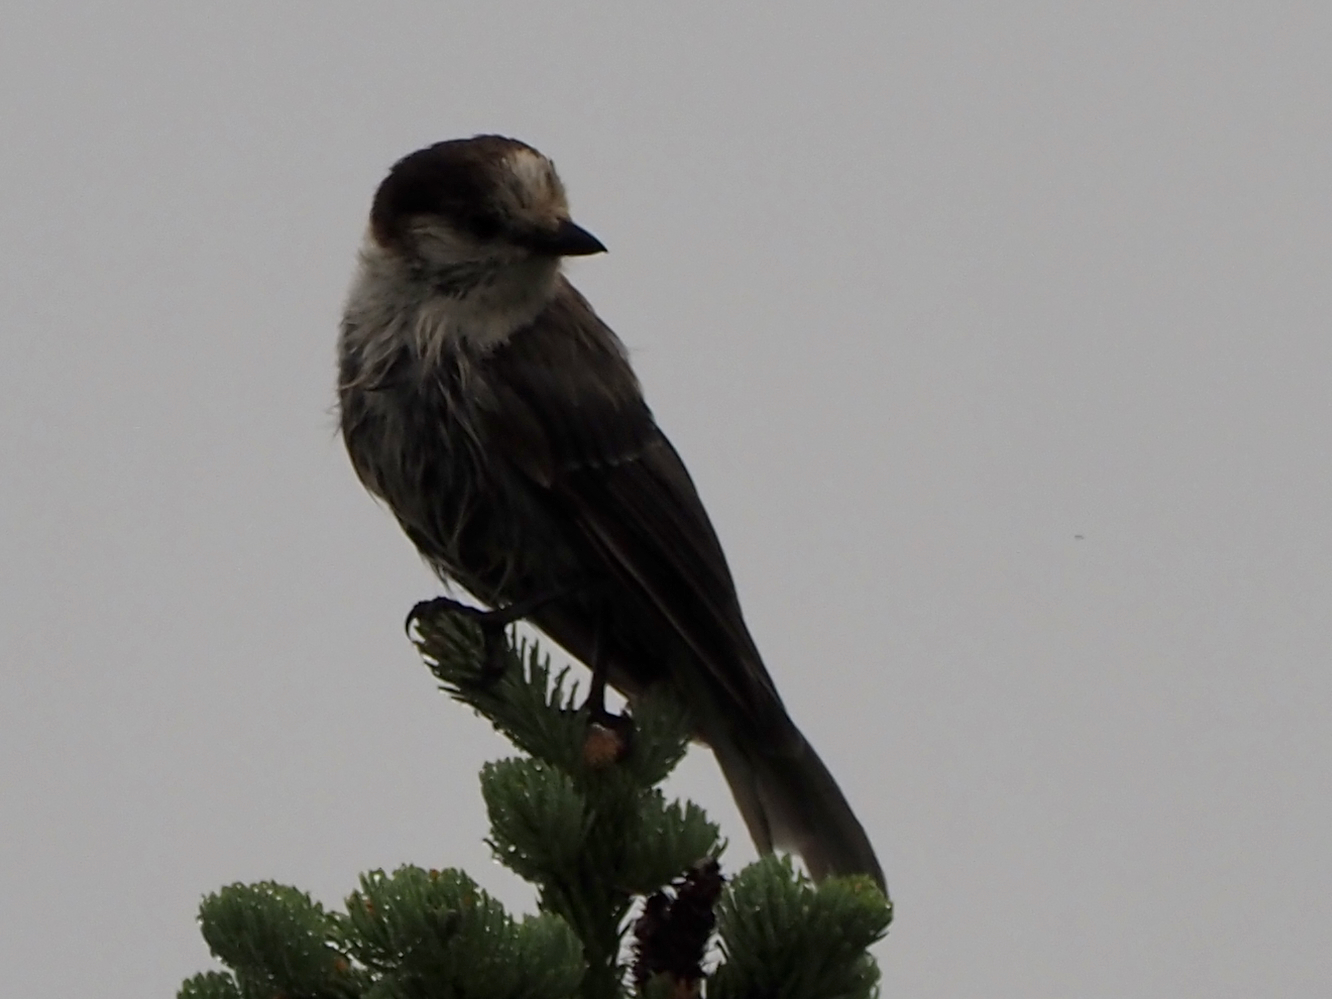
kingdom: Animalia
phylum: Chordata
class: Aves
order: Passeriformes
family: Corvidae
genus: Perisoreus
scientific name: Perisoreus canadensis
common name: Gray jay
